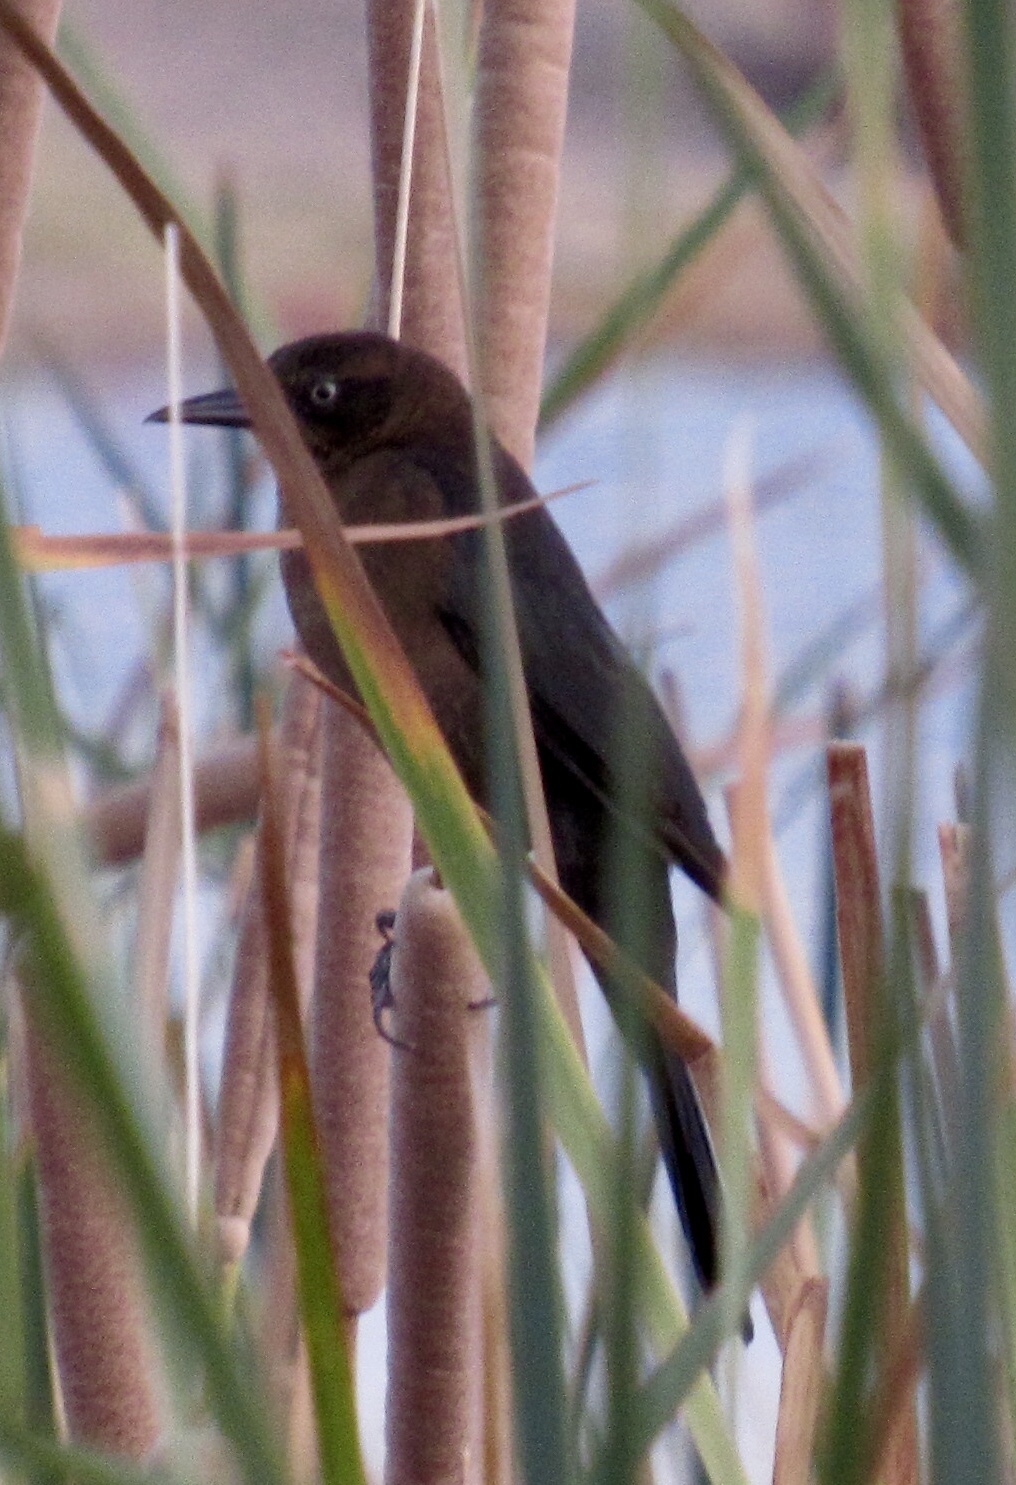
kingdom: Animalia
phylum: Chordata
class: Aves
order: Passeriformes
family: Icteridae
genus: Quiscalus
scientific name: Quiscalus mexicanus
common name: Great-tailed grackle
